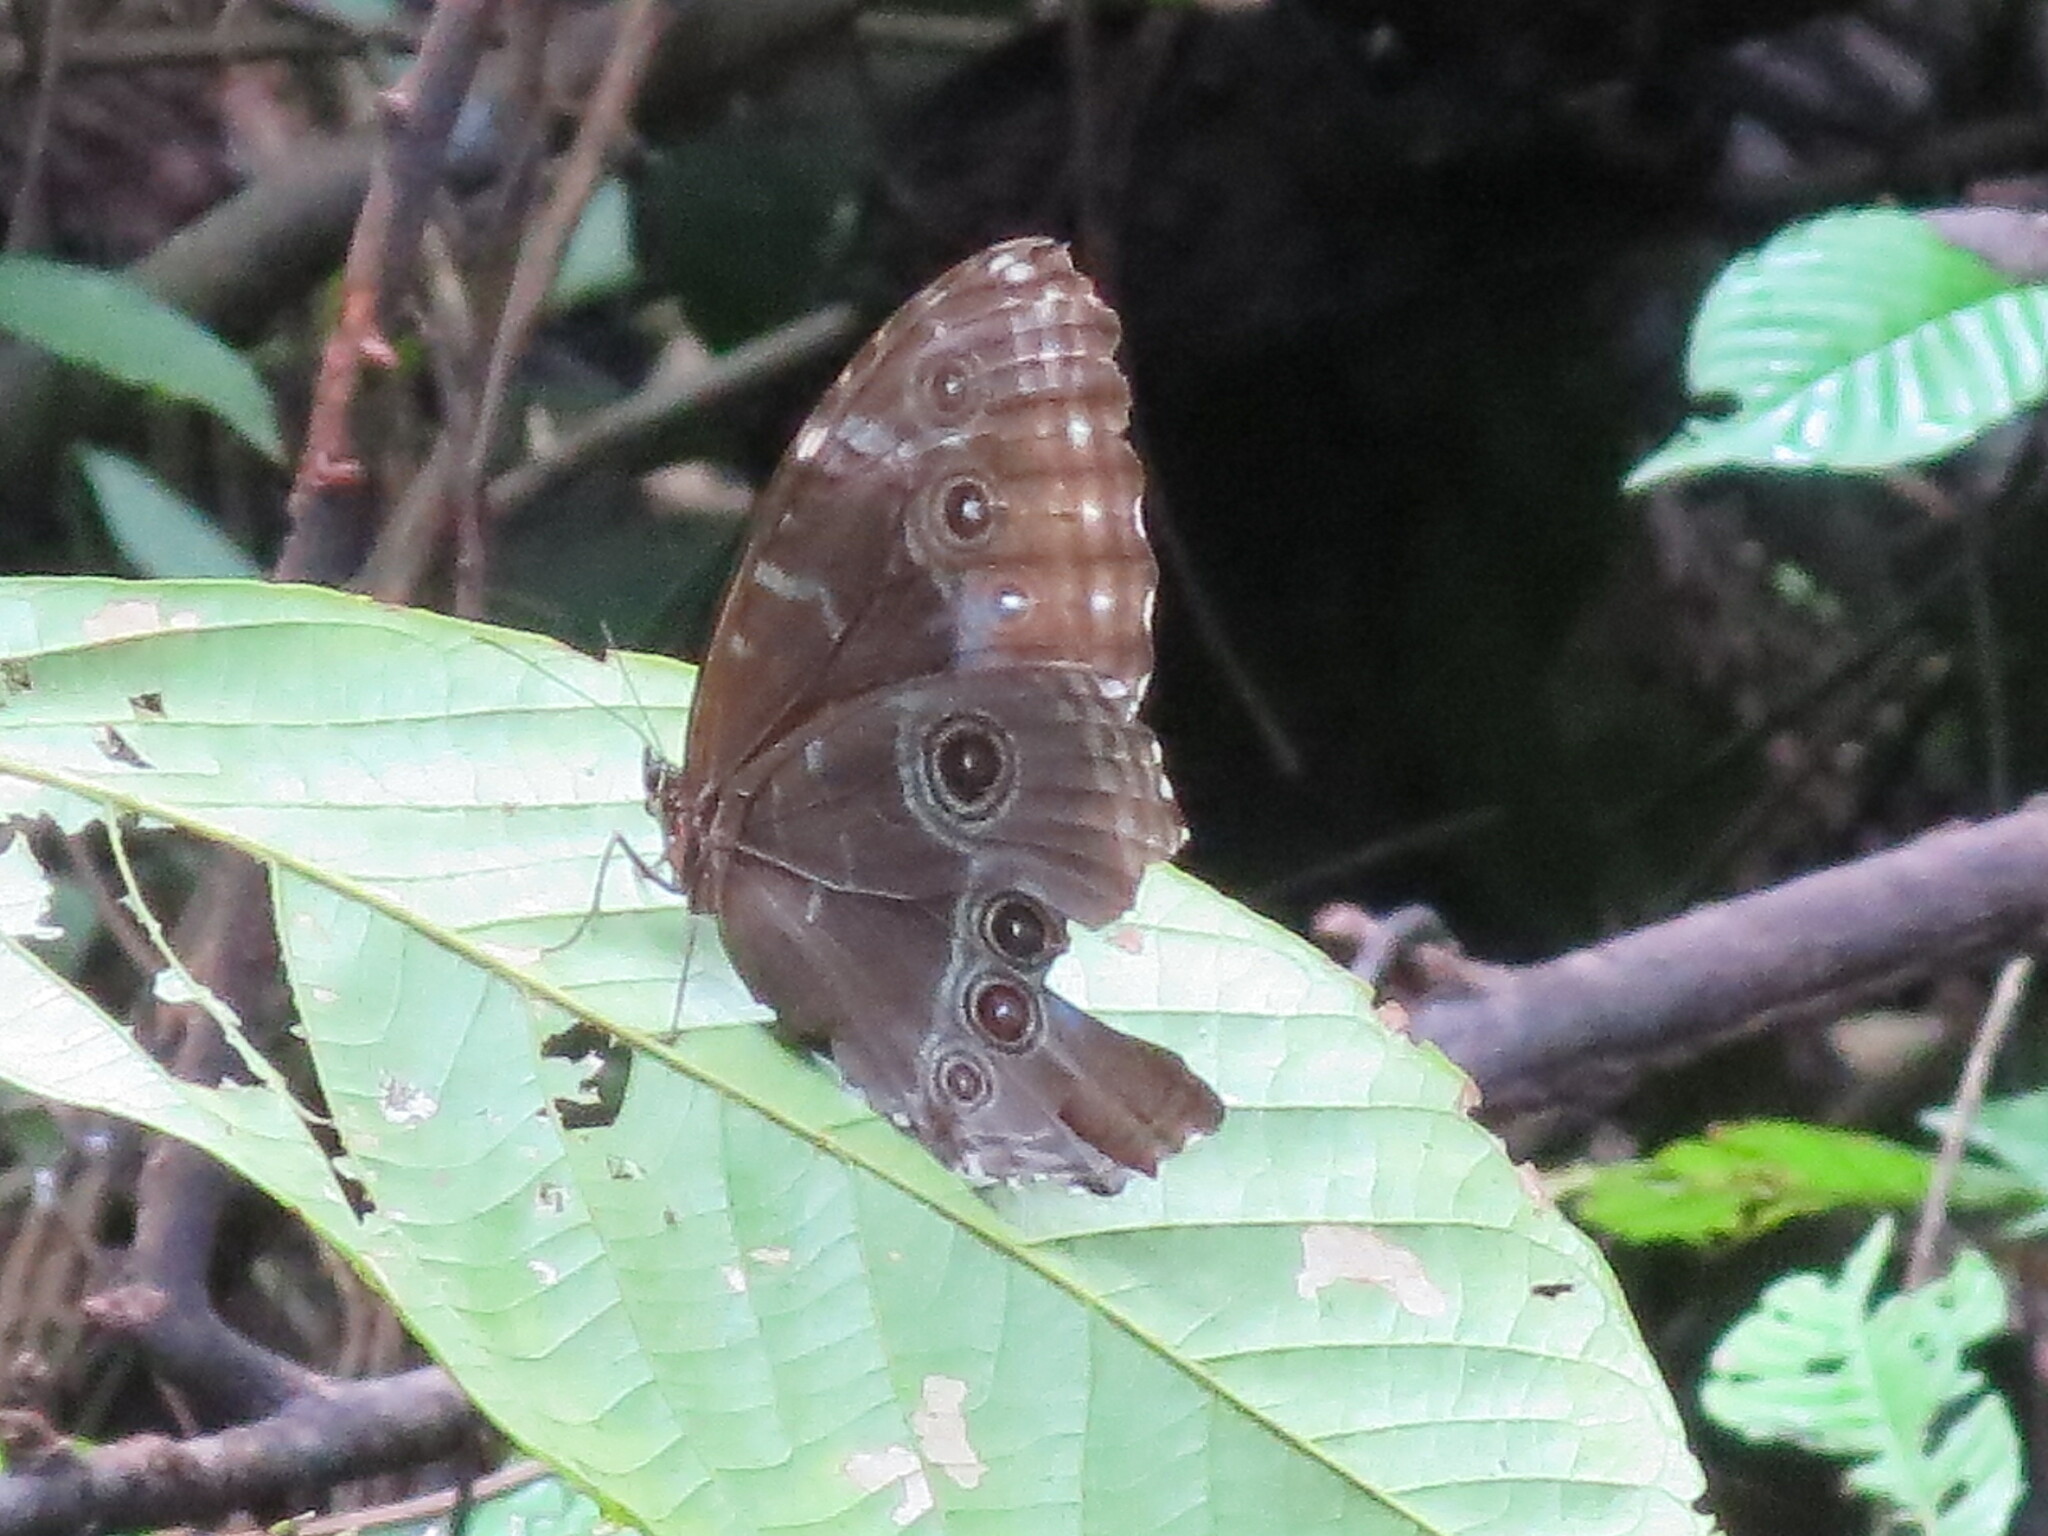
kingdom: Animalia
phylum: Arthropoda
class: Insecta
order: Lepidoptera
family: Nymphalidae
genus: Morpho
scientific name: Morpho helenor
